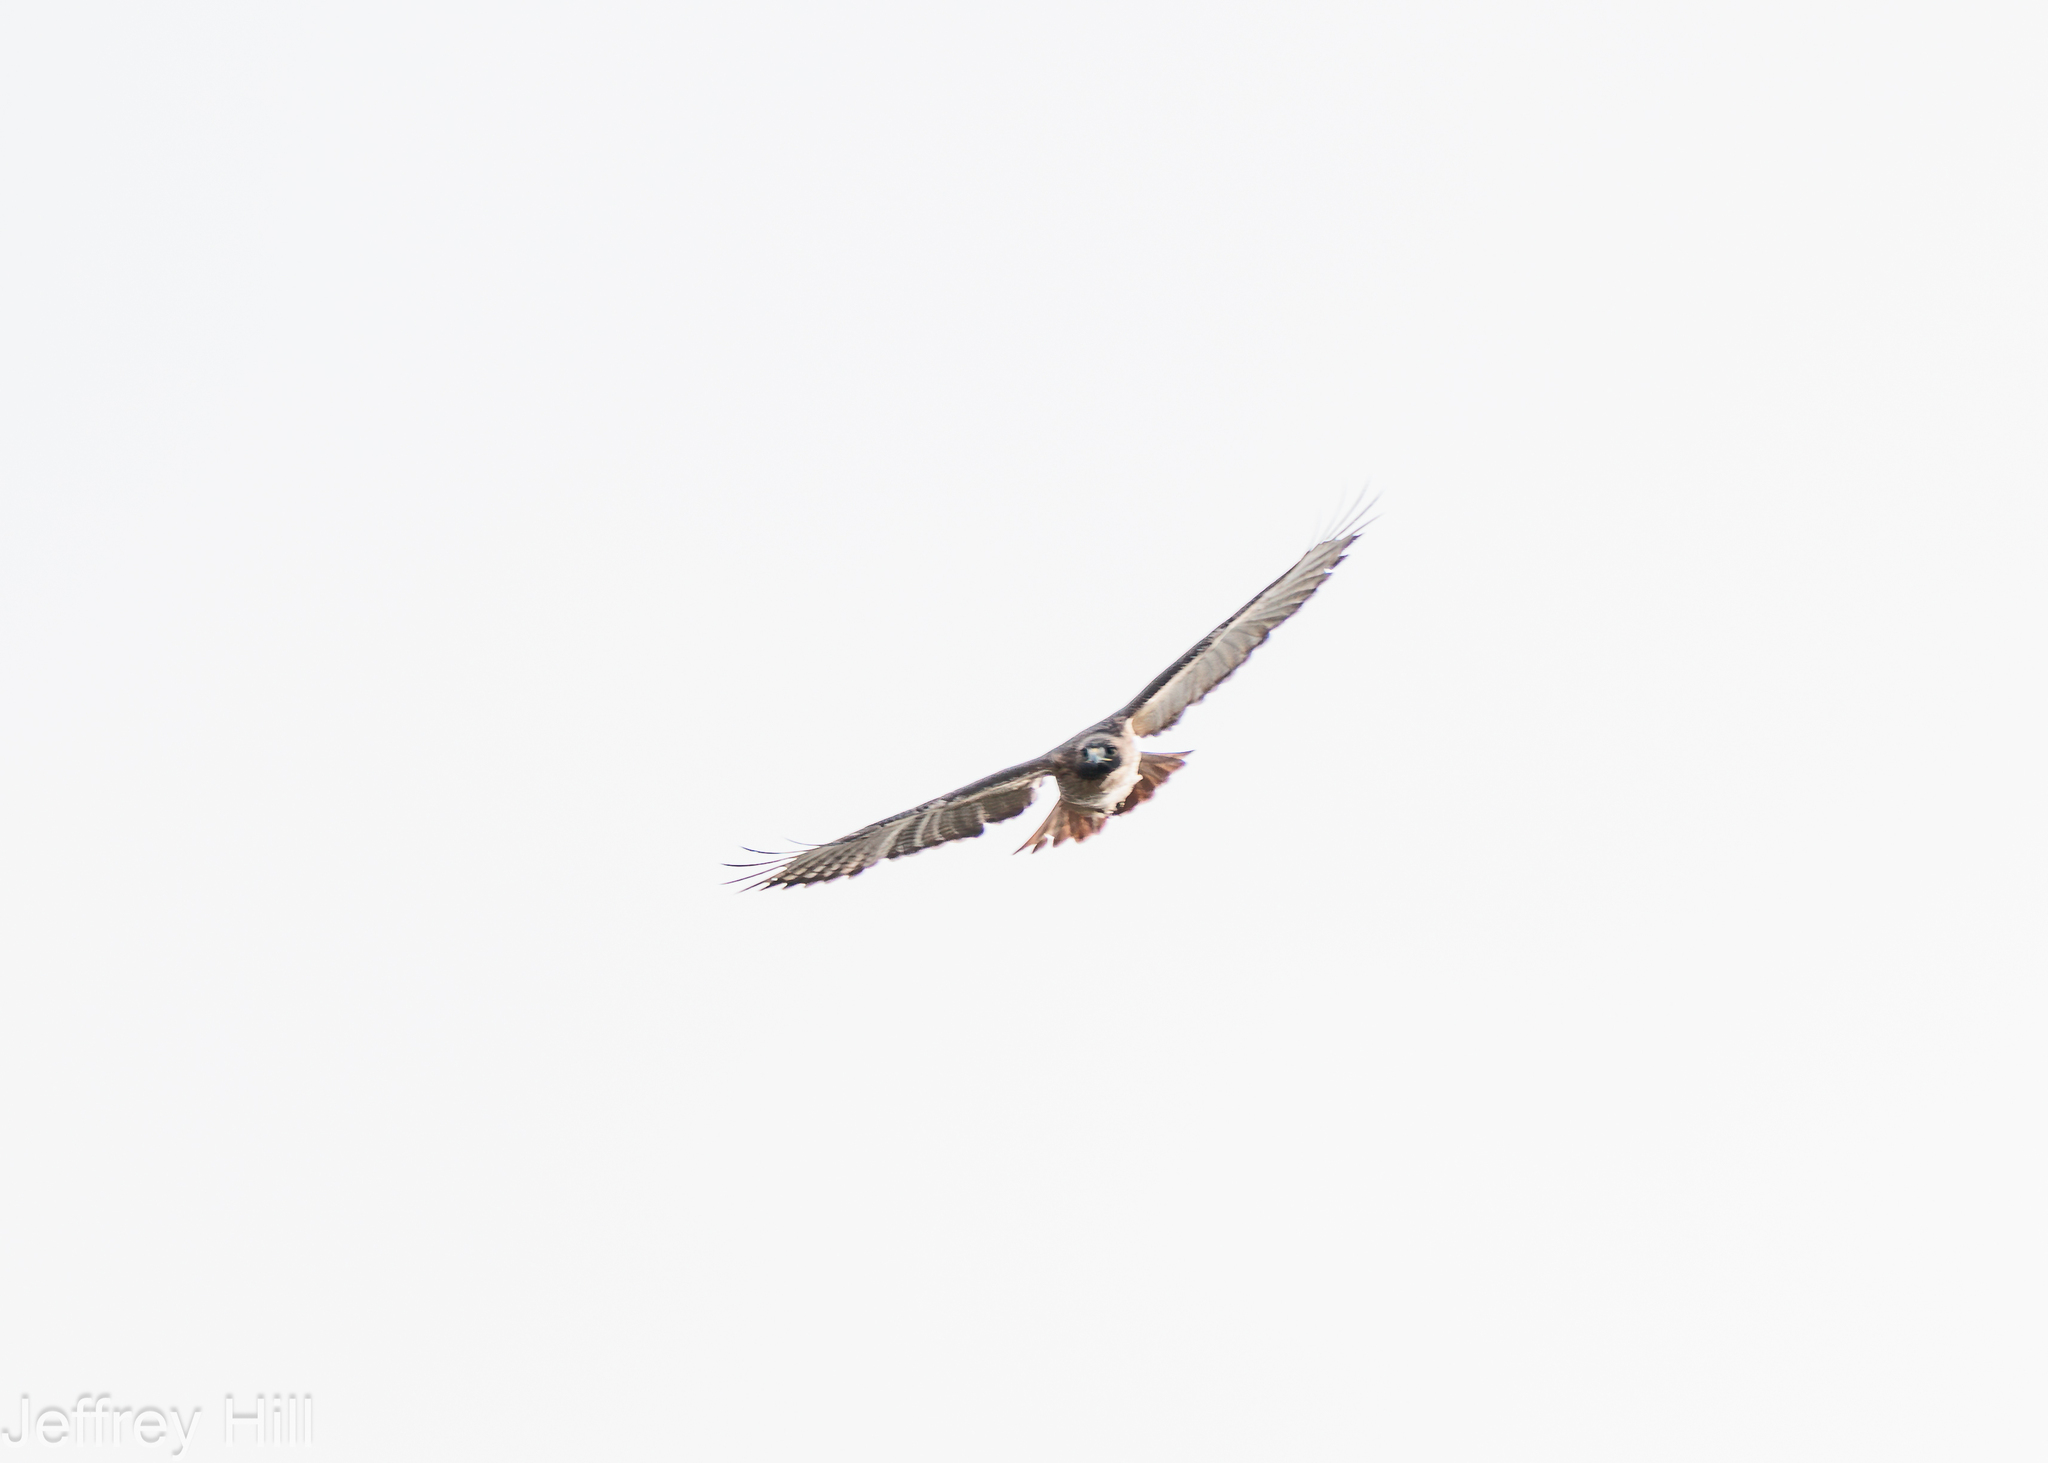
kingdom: Animalia
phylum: Chordata
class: Aves
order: Accipitriformes
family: Accipitridae
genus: Buteo
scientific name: Buteo jamaicensis
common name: Red-tailed hawk
